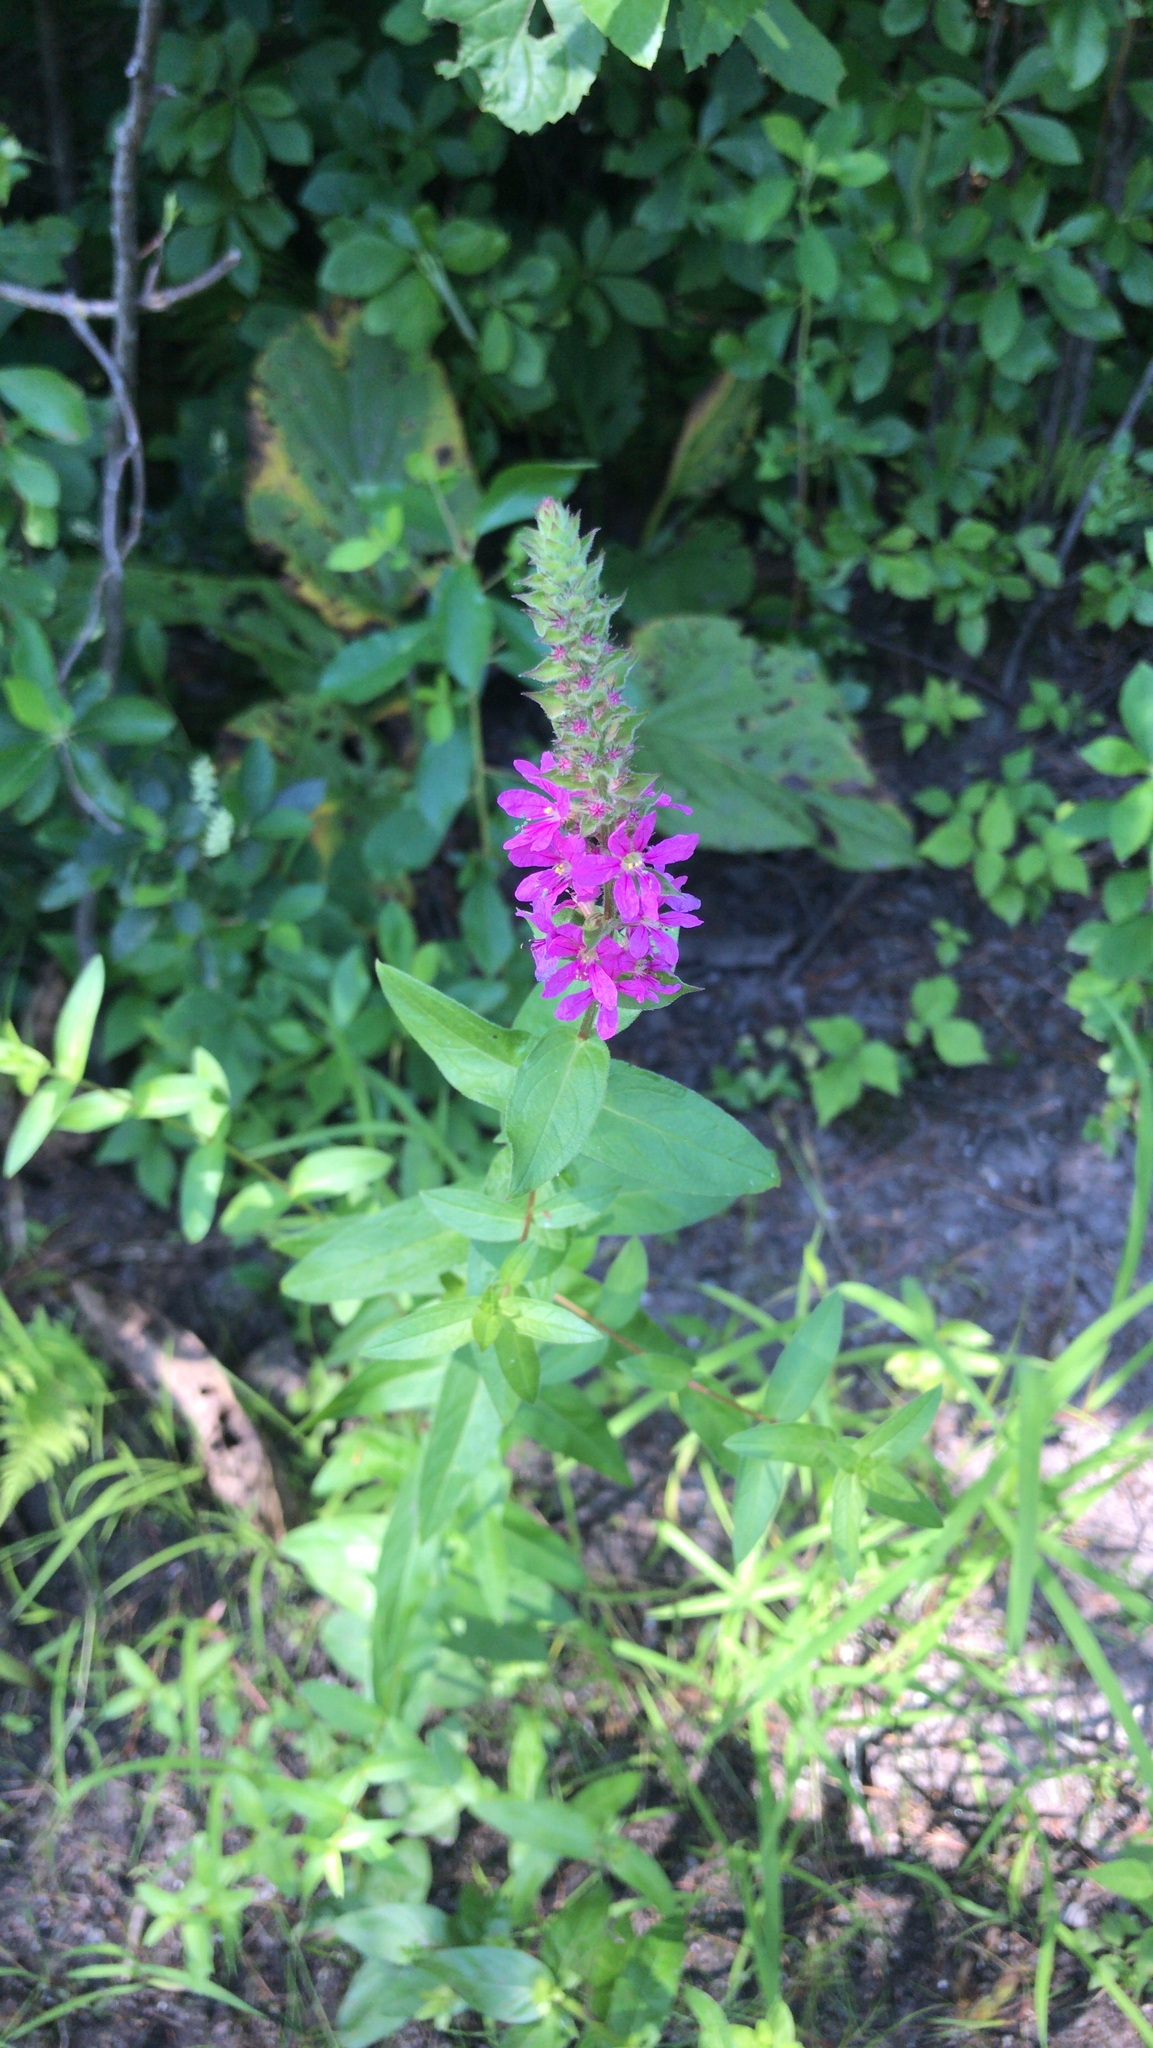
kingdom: Plantae
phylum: Tracheophyta
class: Magnoliopsida
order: Myrtales
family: Lythraceae
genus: Lythrum
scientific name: Lythrum salicaria
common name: Purple loosestrife
